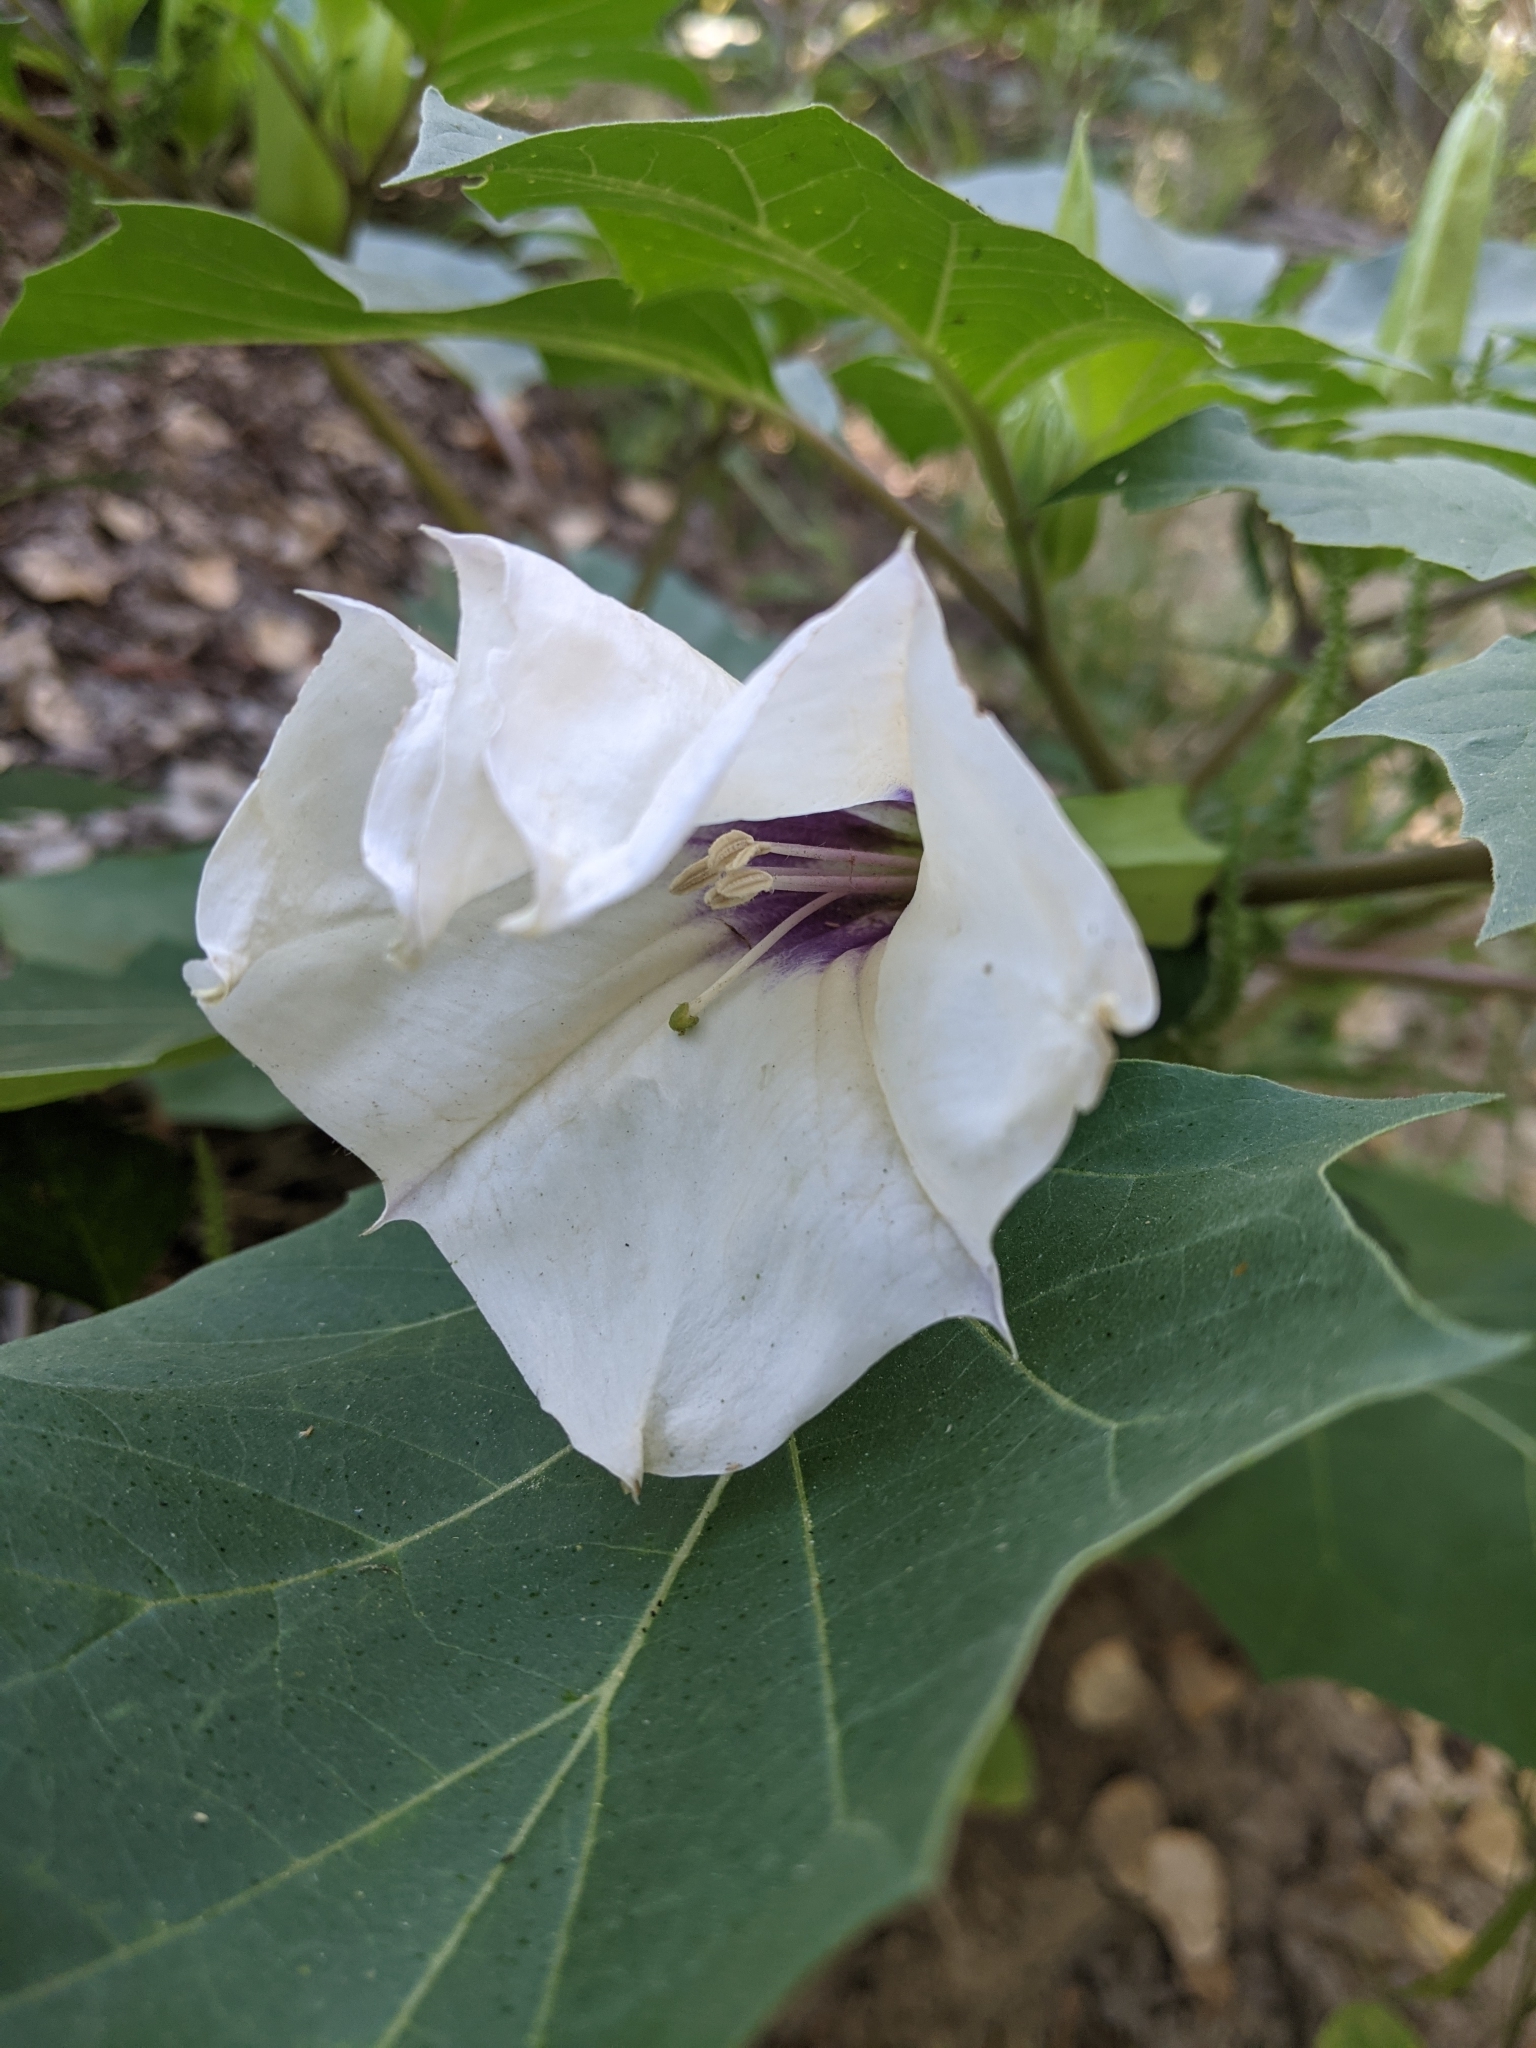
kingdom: Plantae
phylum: Tracheophyta
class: Magnoliopsida
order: Solanales
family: Solanaceae
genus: Datura
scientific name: Datura discolor
